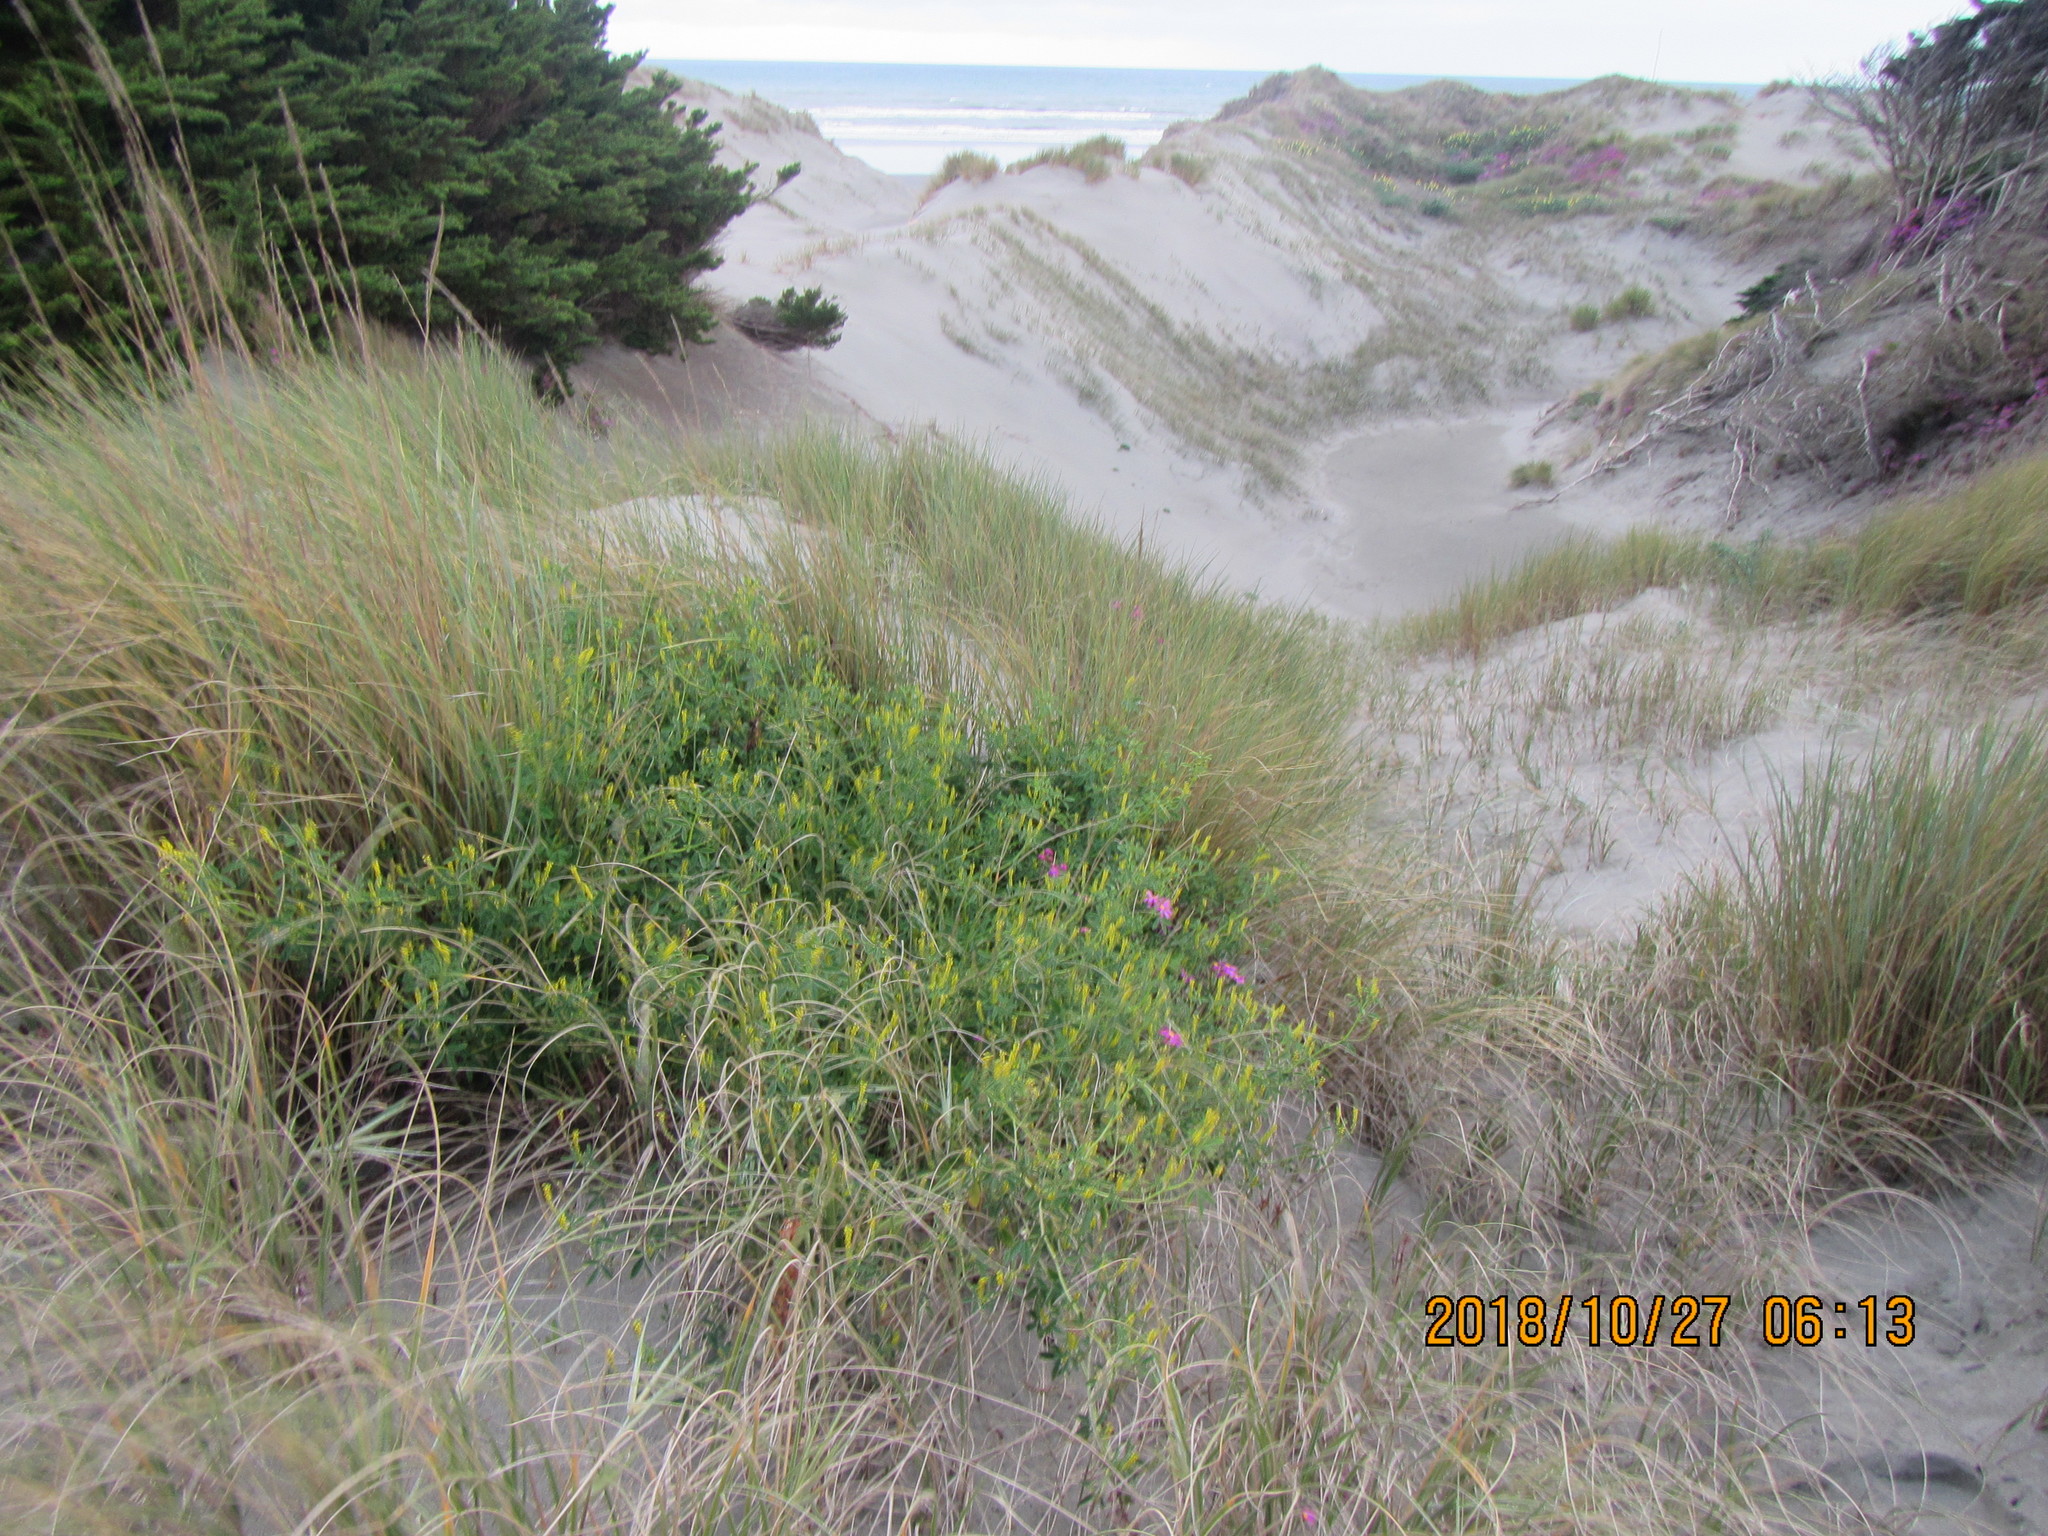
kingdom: Plantae
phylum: Tracheophyta
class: Magnoliopsida
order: Fabales
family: Fabaceae
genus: Melilotus
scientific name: Melilotus indicus
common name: Small melilot
